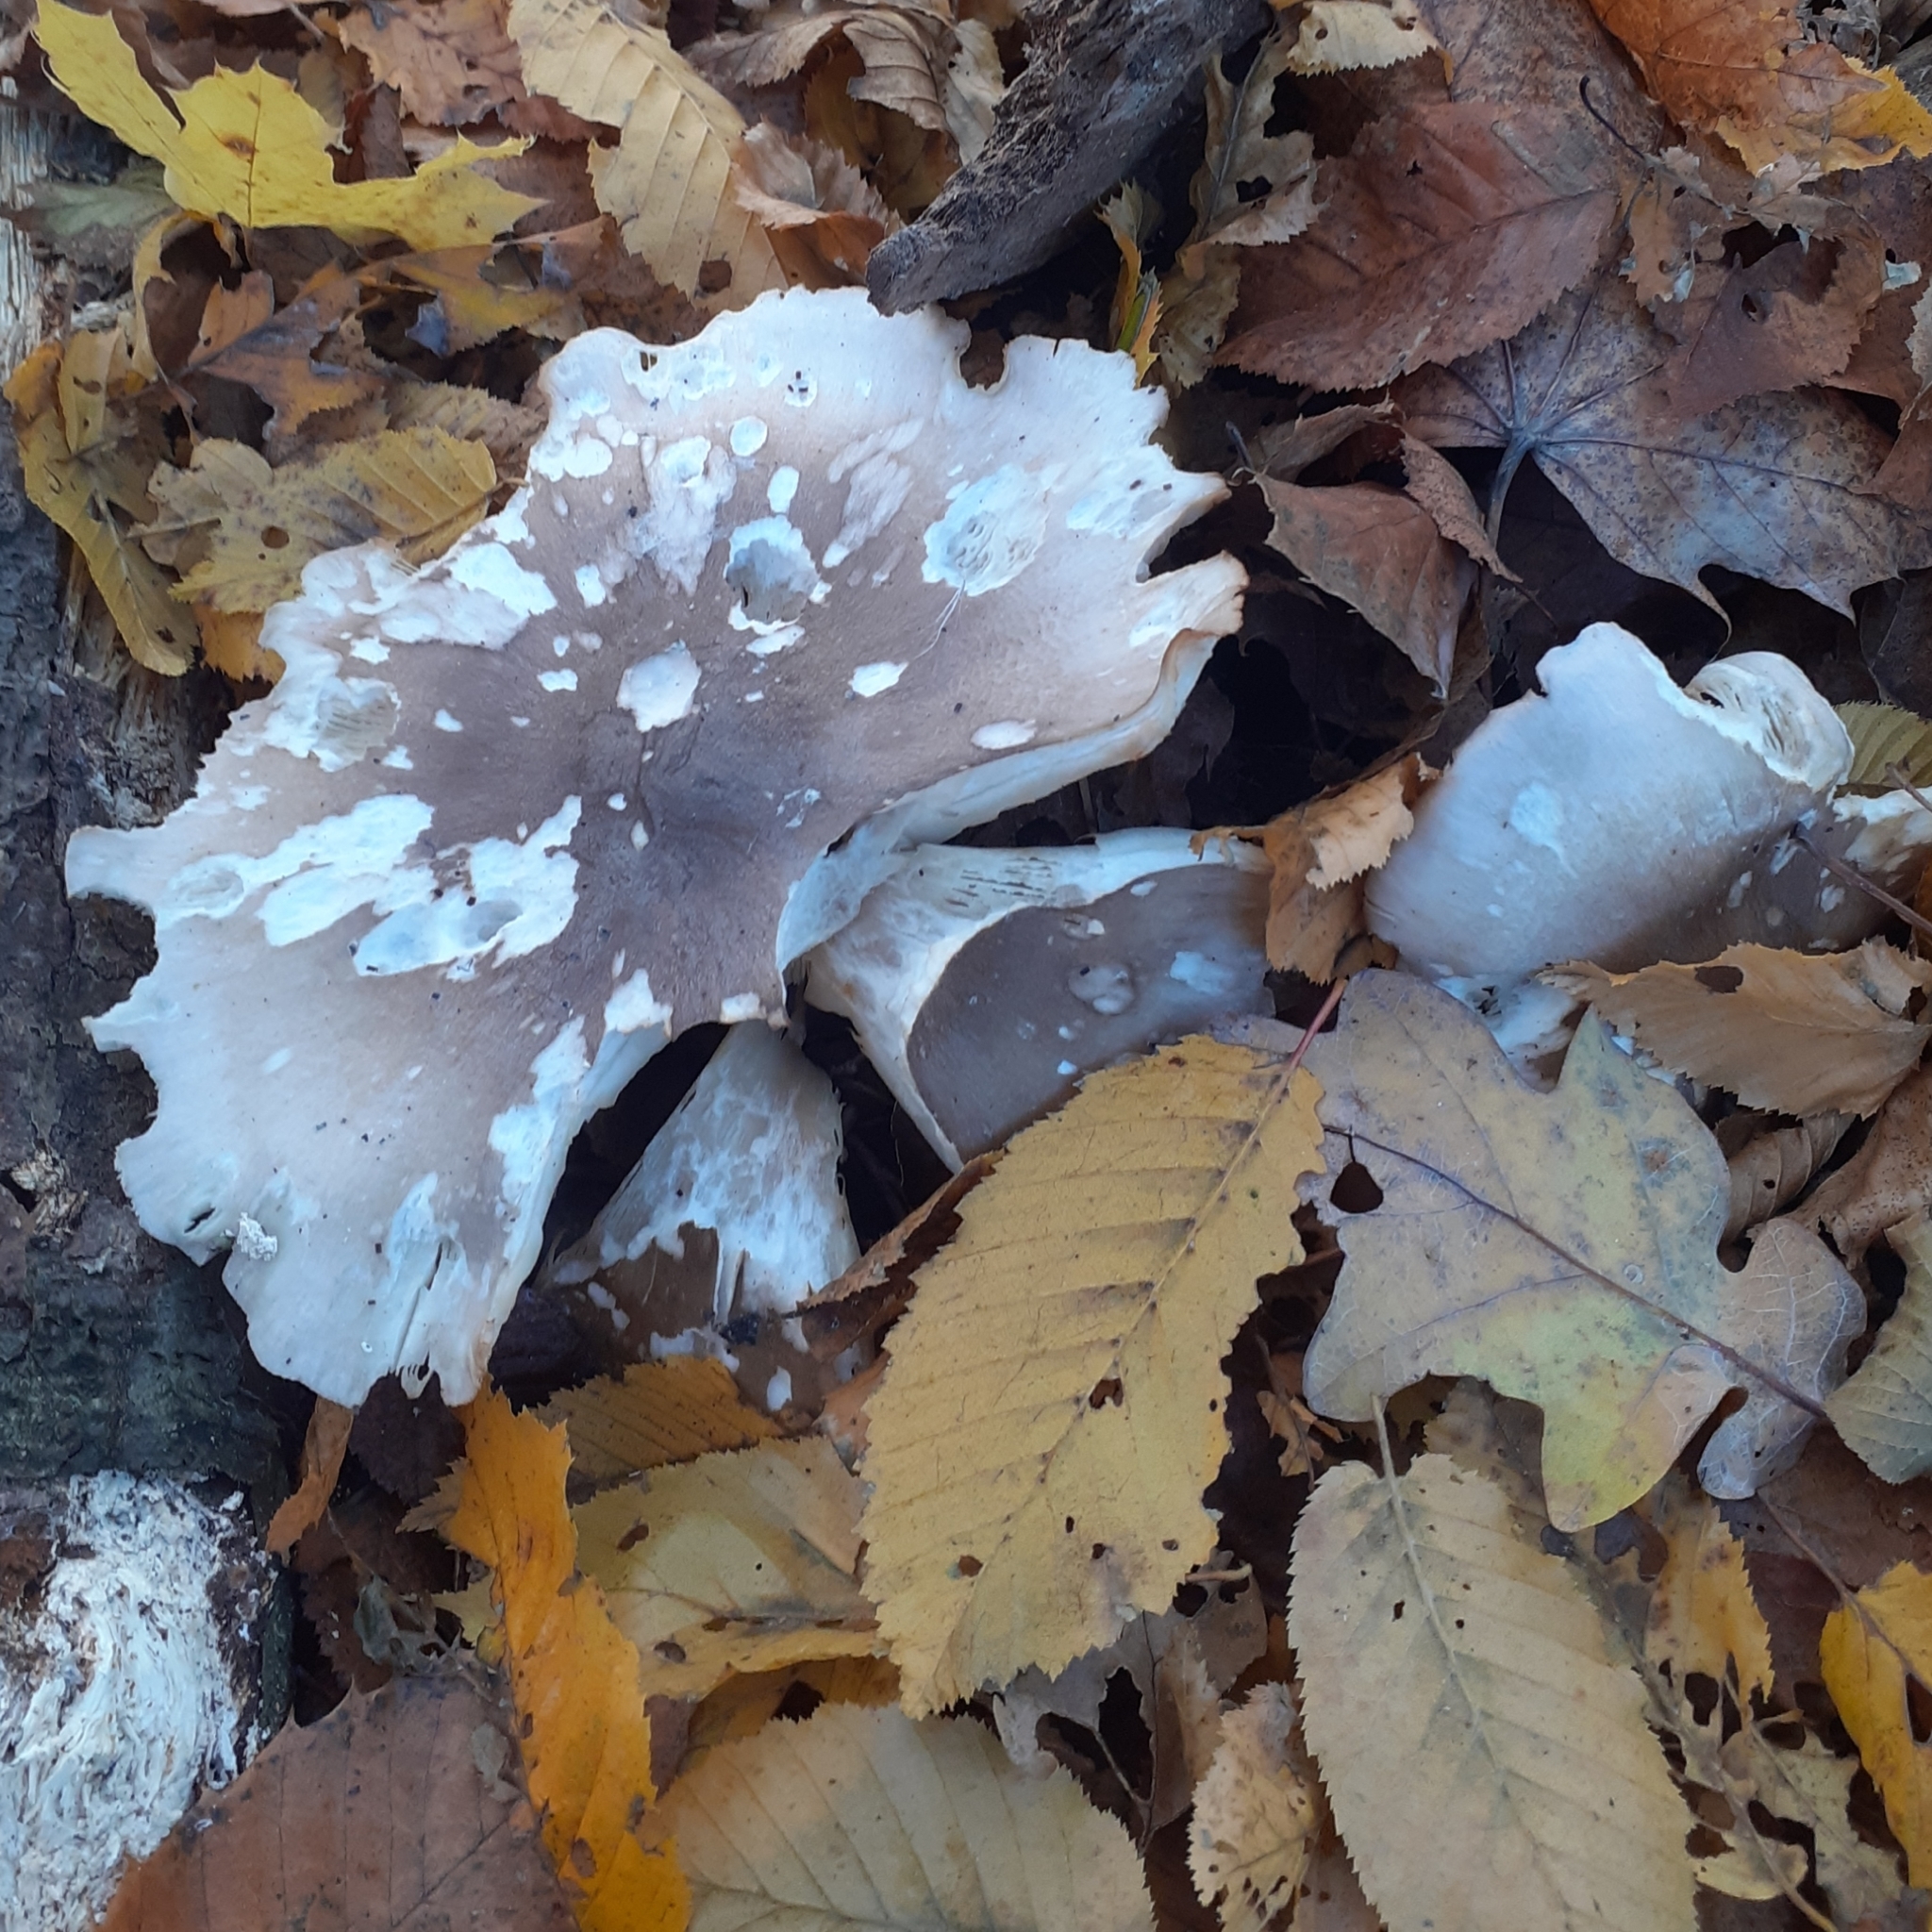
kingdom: Fungi
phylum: Basidiomycota
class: Agaricomycetes
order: Agaricales
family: Tricholomataceae
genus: Clitocybe
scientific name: Clitocybe nebularis
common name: Clouded agaric
